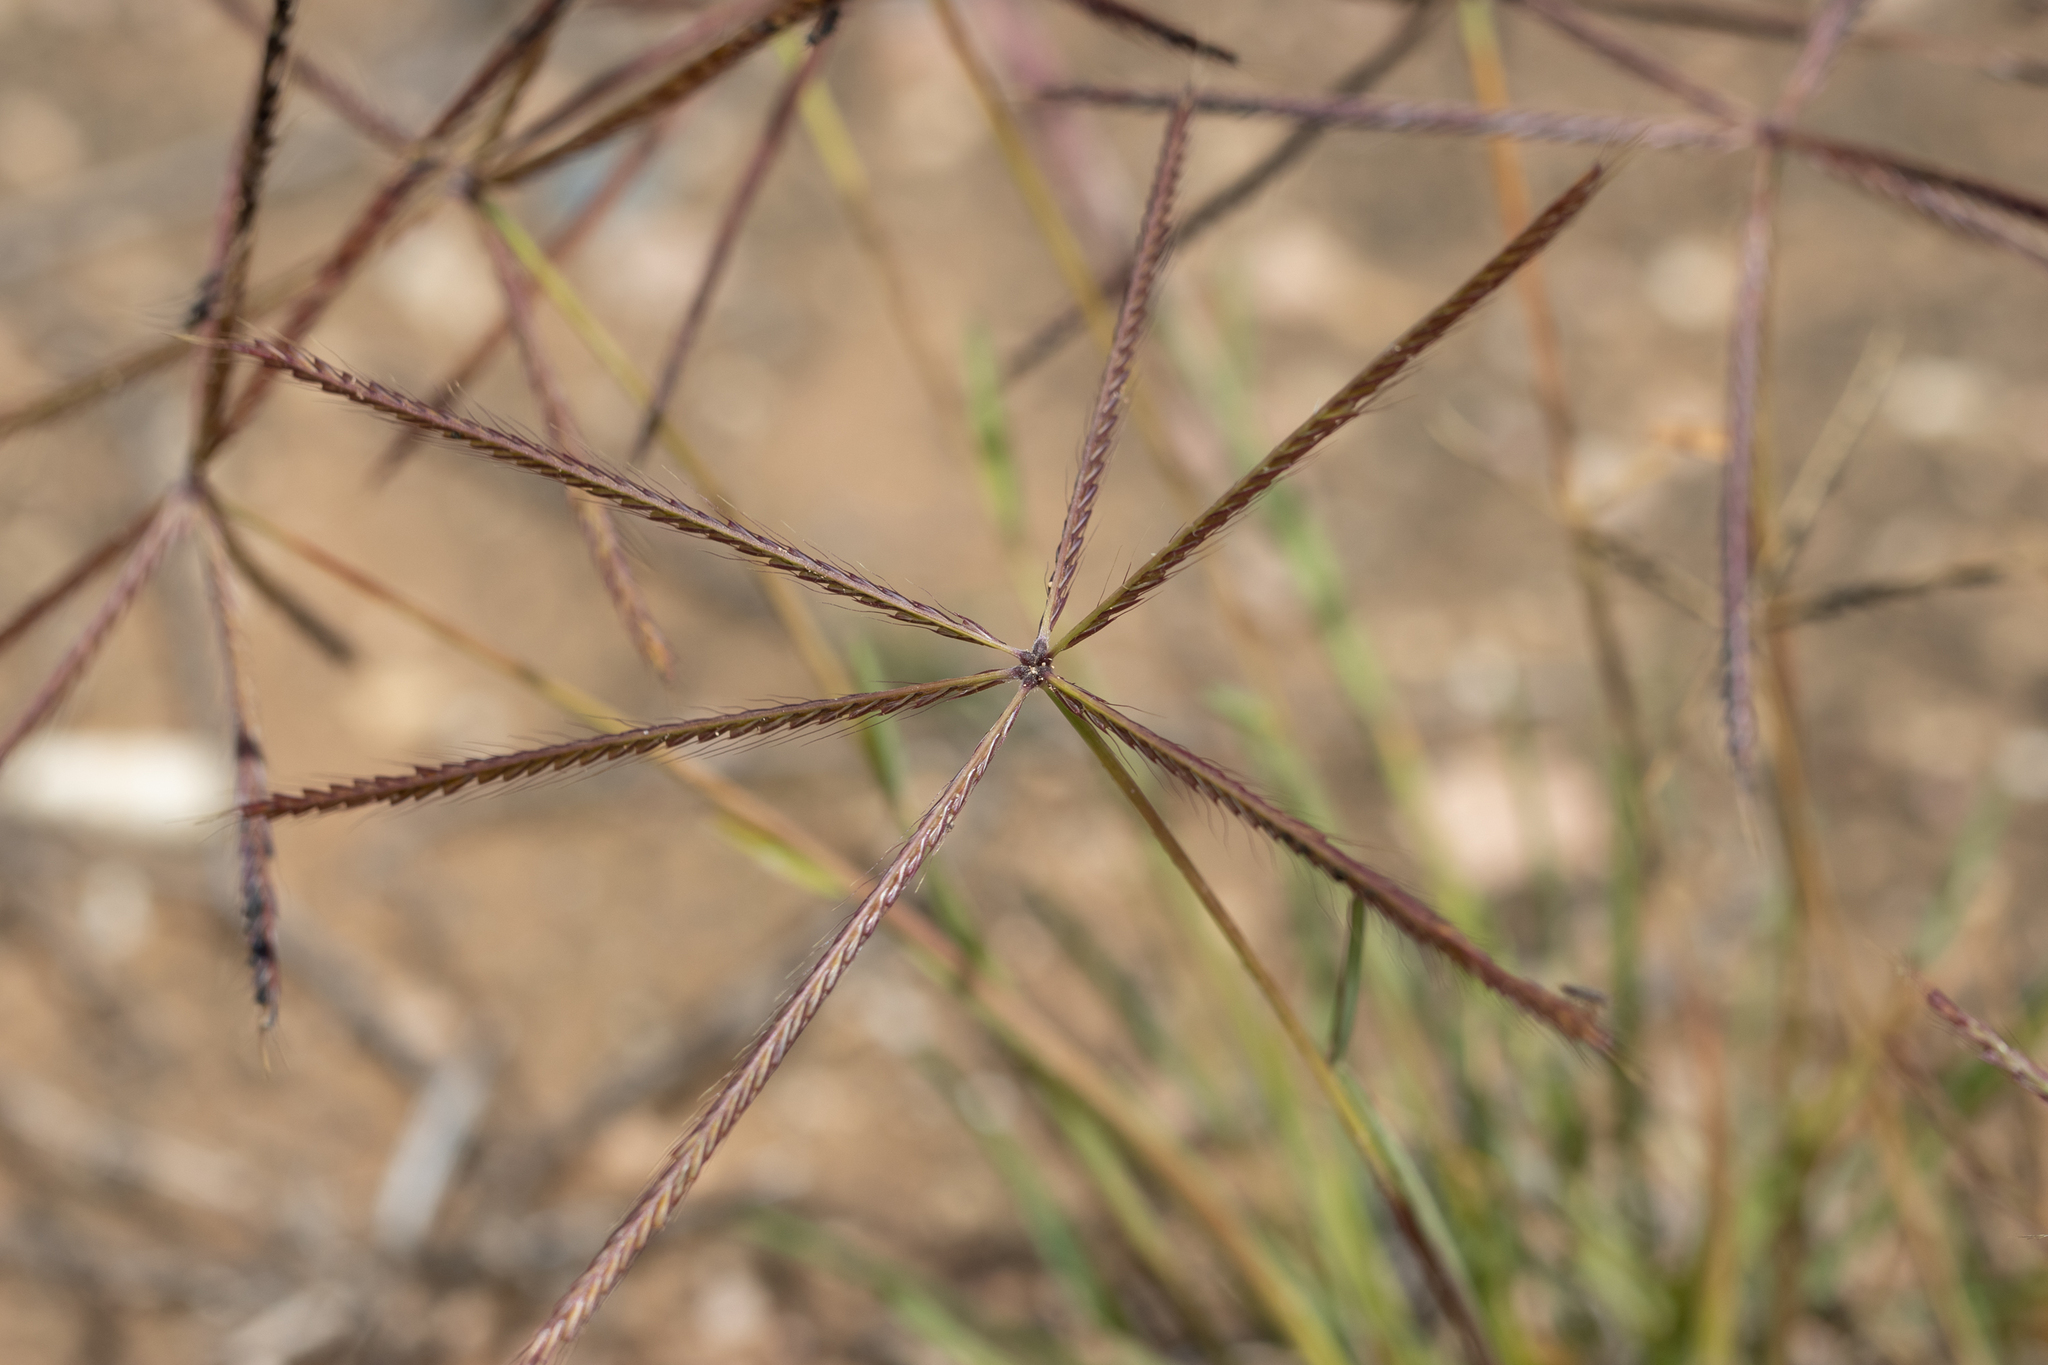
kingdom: Plantae
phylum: Tracheophyta
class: Liliopsida
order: Poales
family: Poaceae
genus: Chloris
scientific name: Chloris truncata
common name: Windmill-grass
